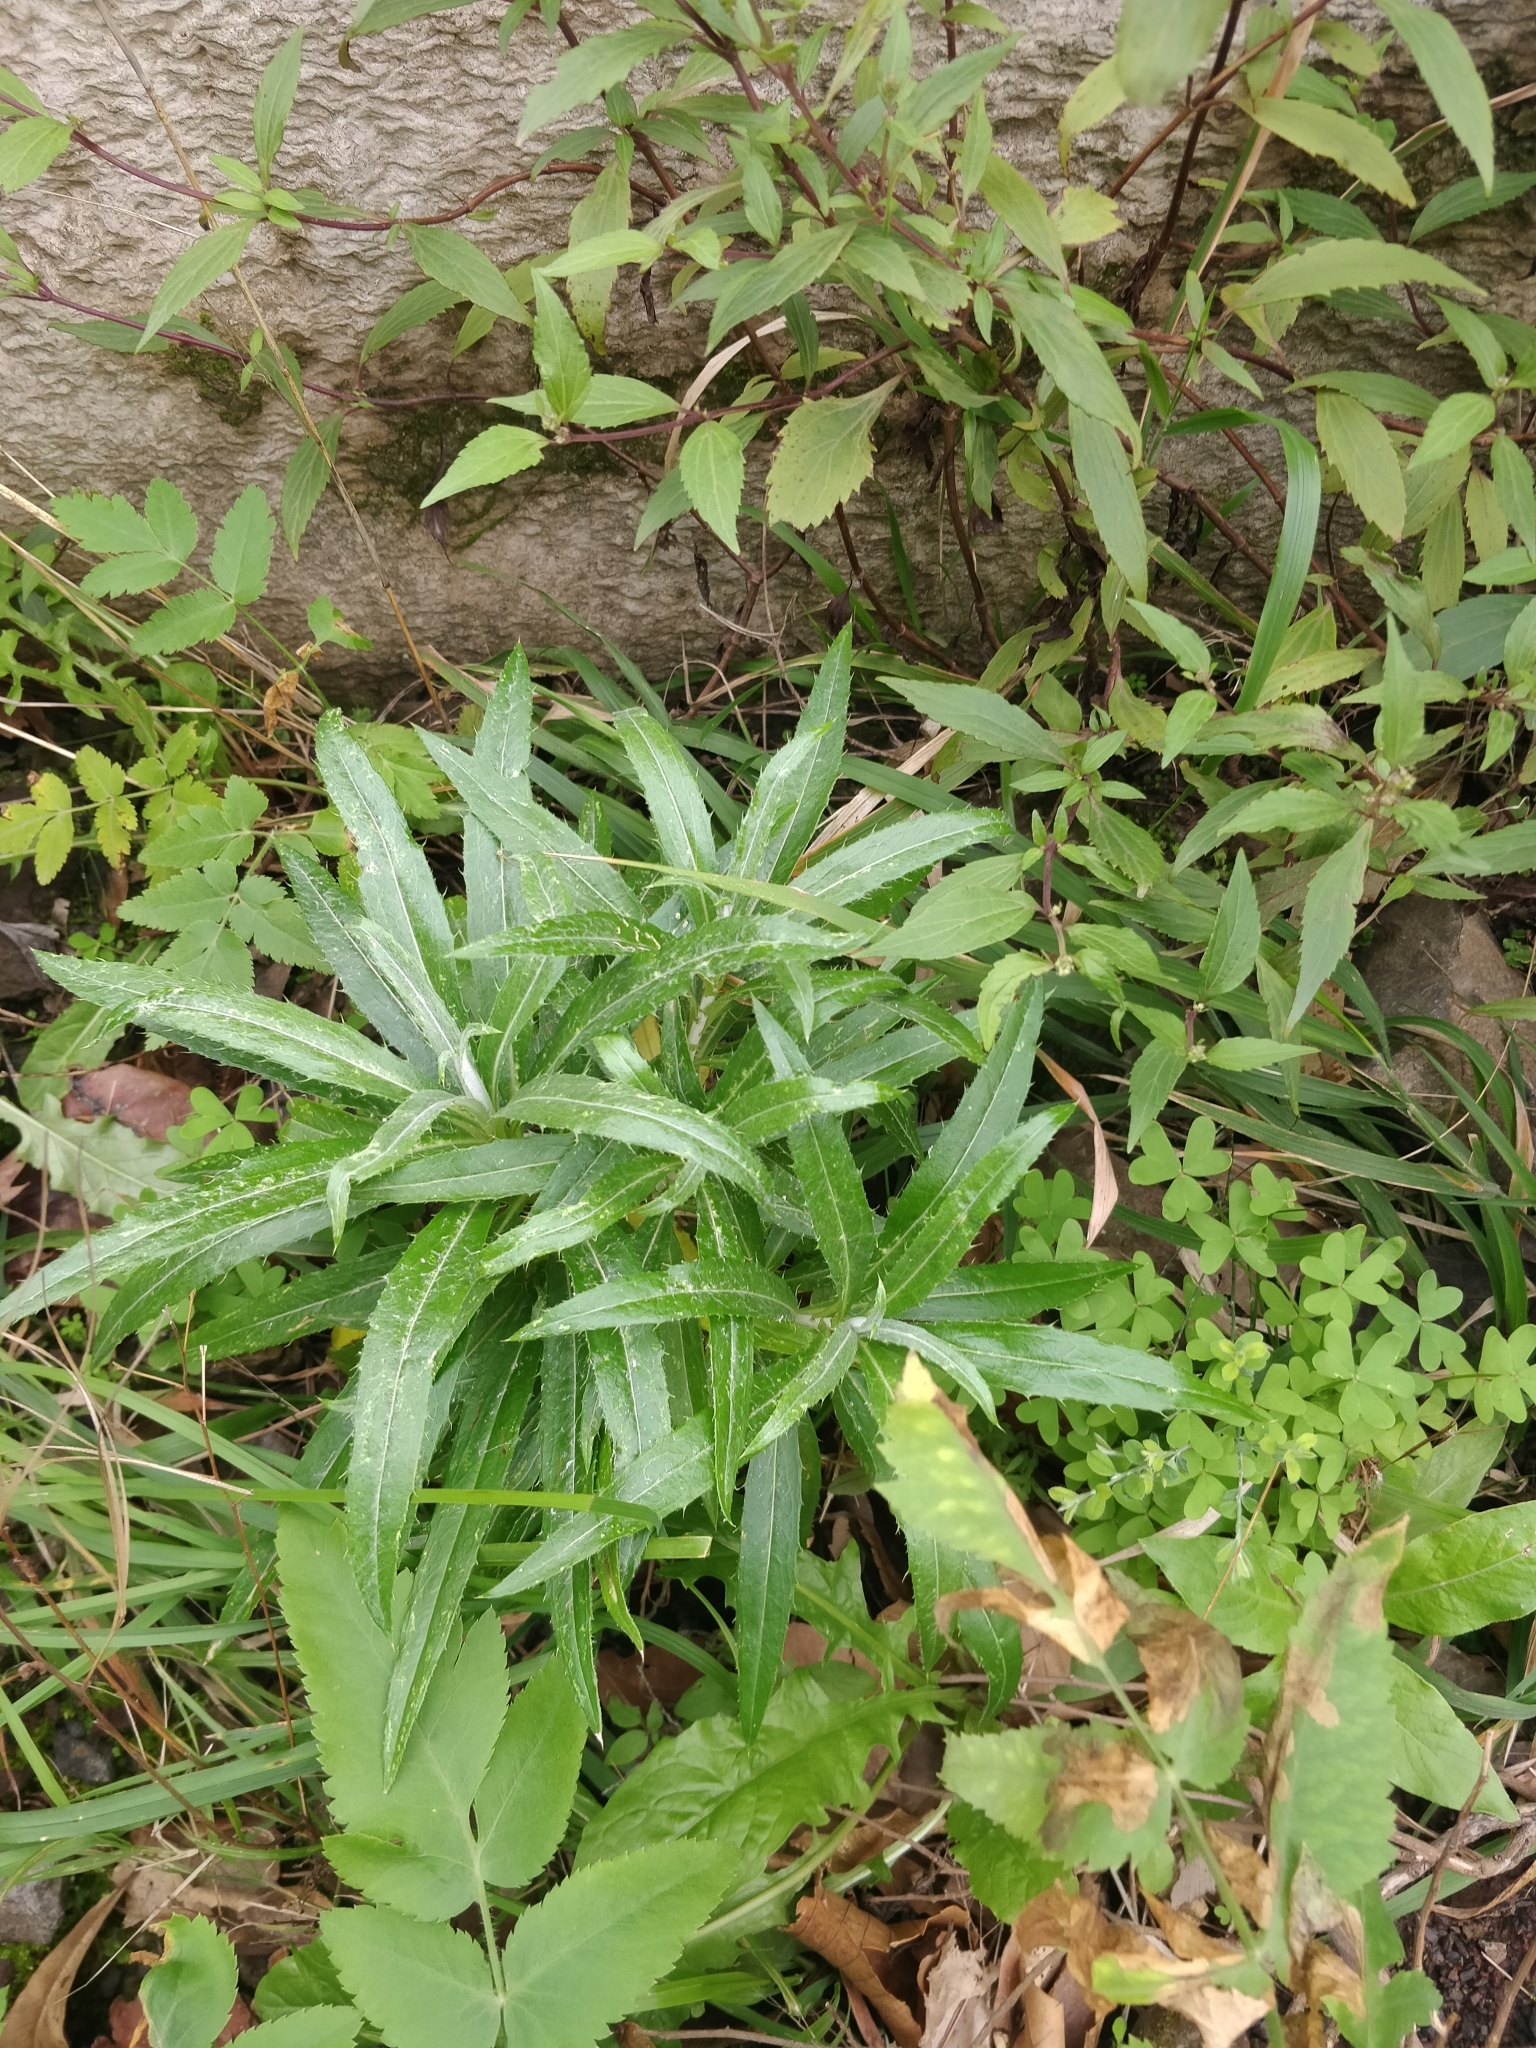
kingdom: Plantae
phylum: Tracheophyta
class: Magnoliopsida
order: Asterales
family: Asteraceae
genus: Carlina
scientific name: Carlina salicifolia
